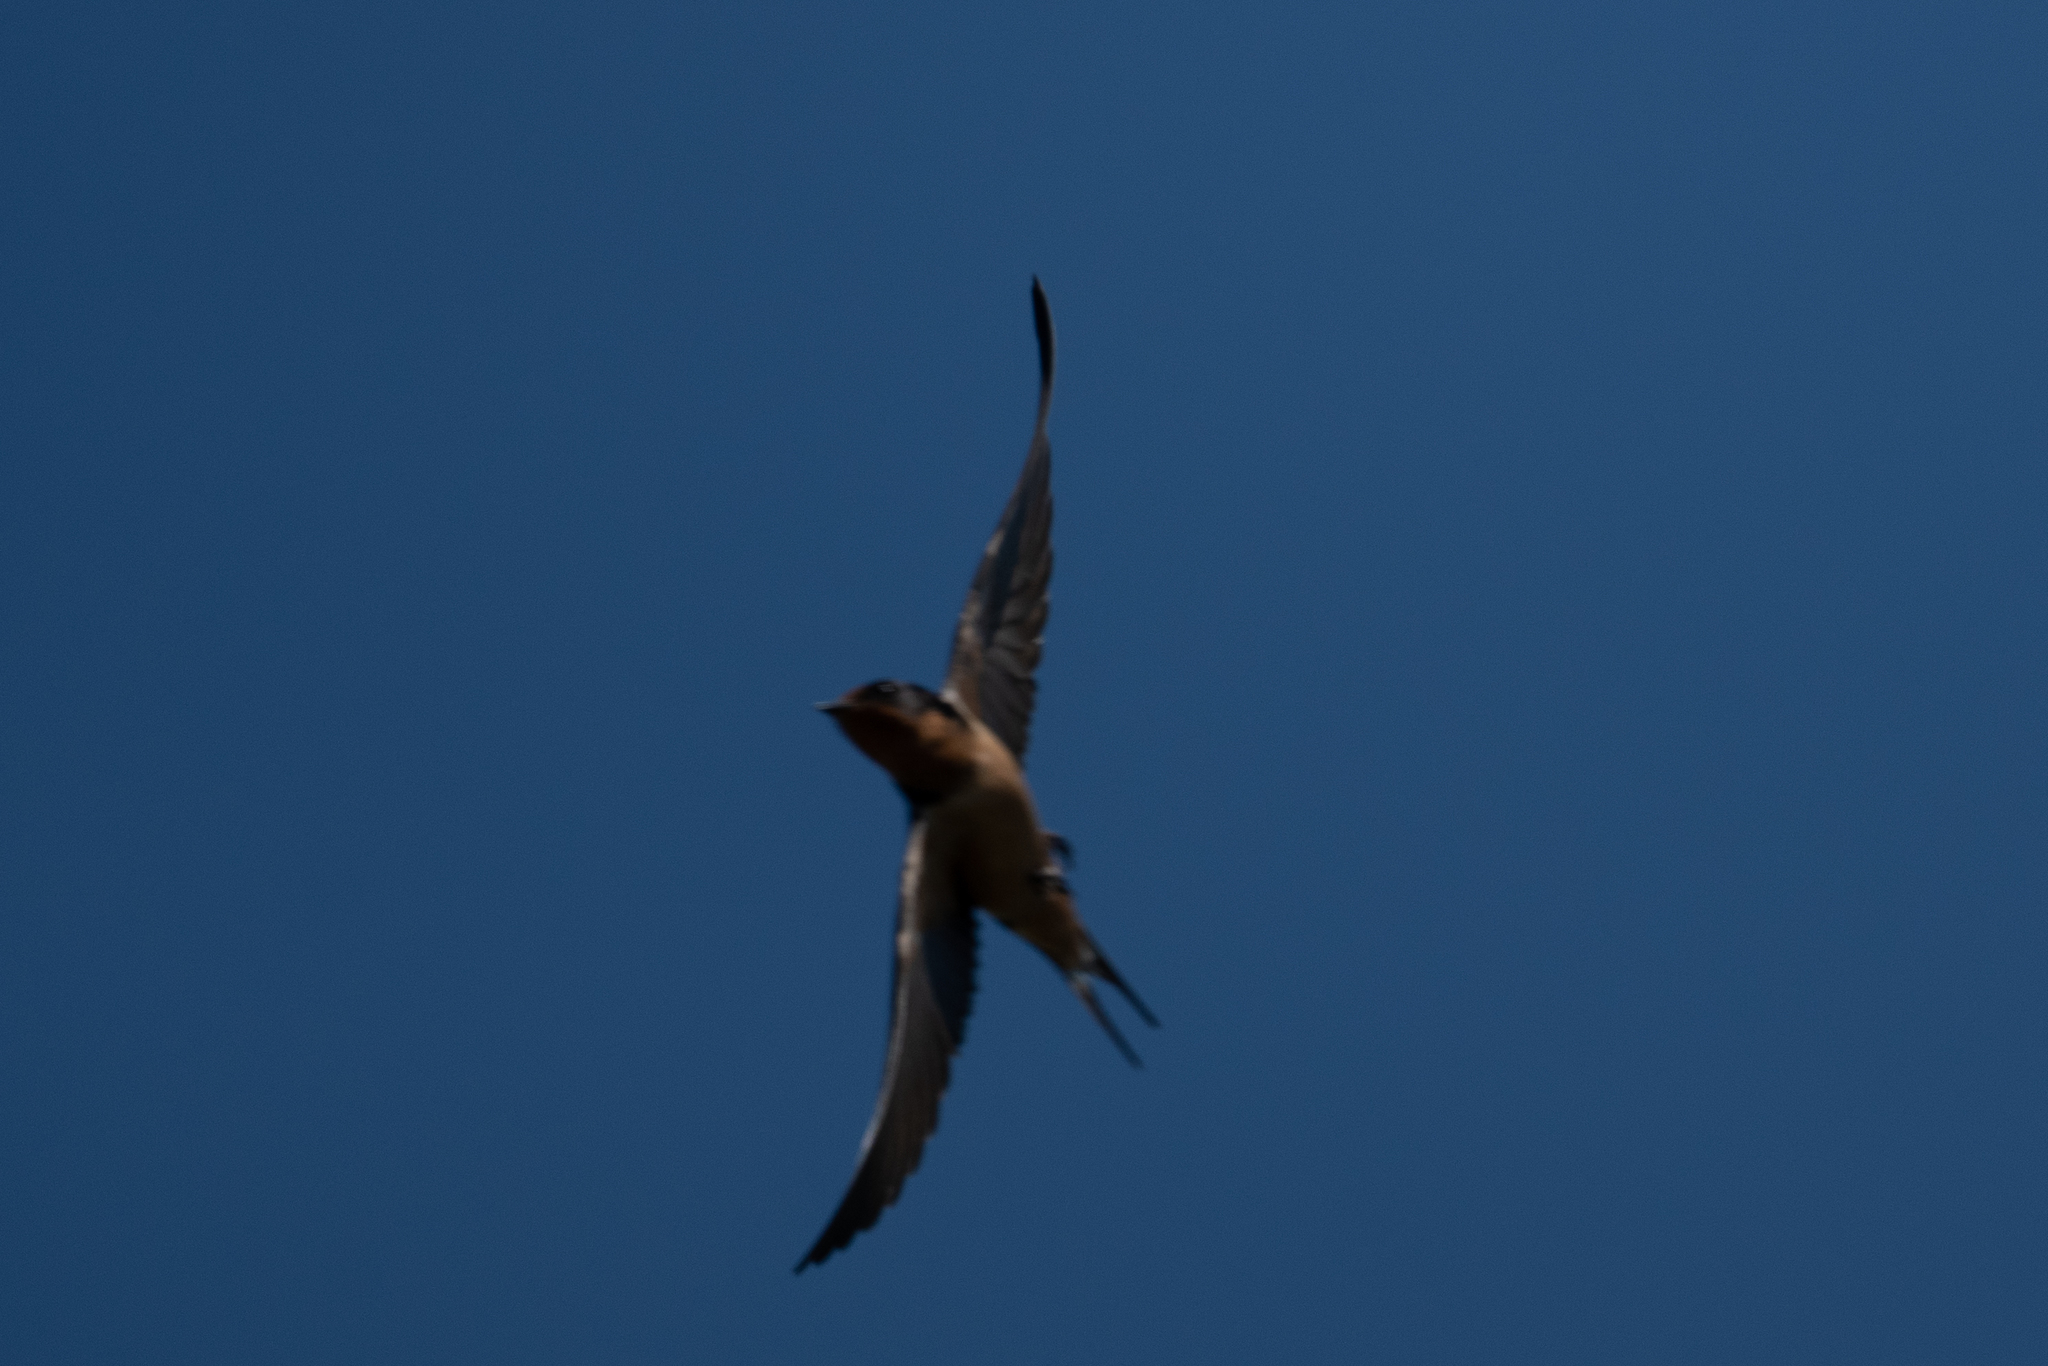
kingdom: Animalia
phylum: Chordata
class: Aves
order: Passeriformes
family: Hirundinidae
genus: Hirundo
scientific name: Hirundo rustica
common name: Barn swallow
